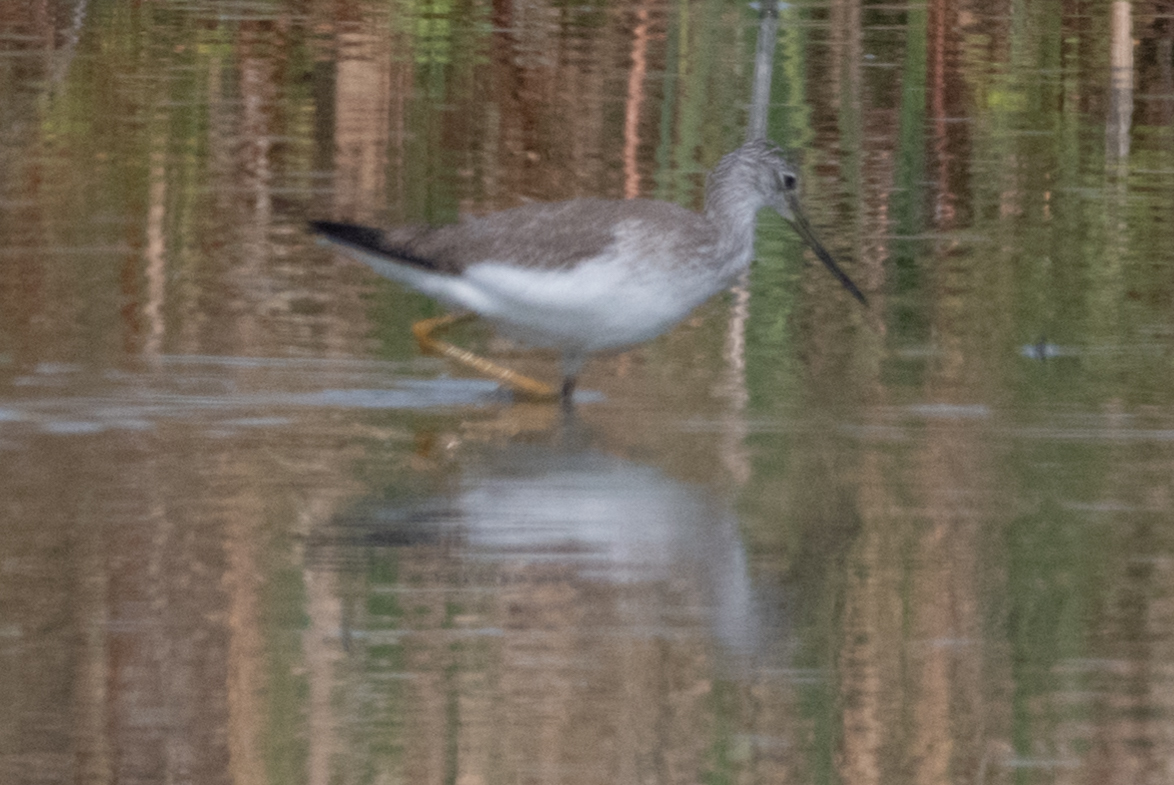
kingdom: Animalia
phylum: Chordata
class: Aves
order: Charadriiformes
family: Scolopacidae
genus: Tringa
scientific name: Tringa melanoleuca
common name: Greater yellowlegs
